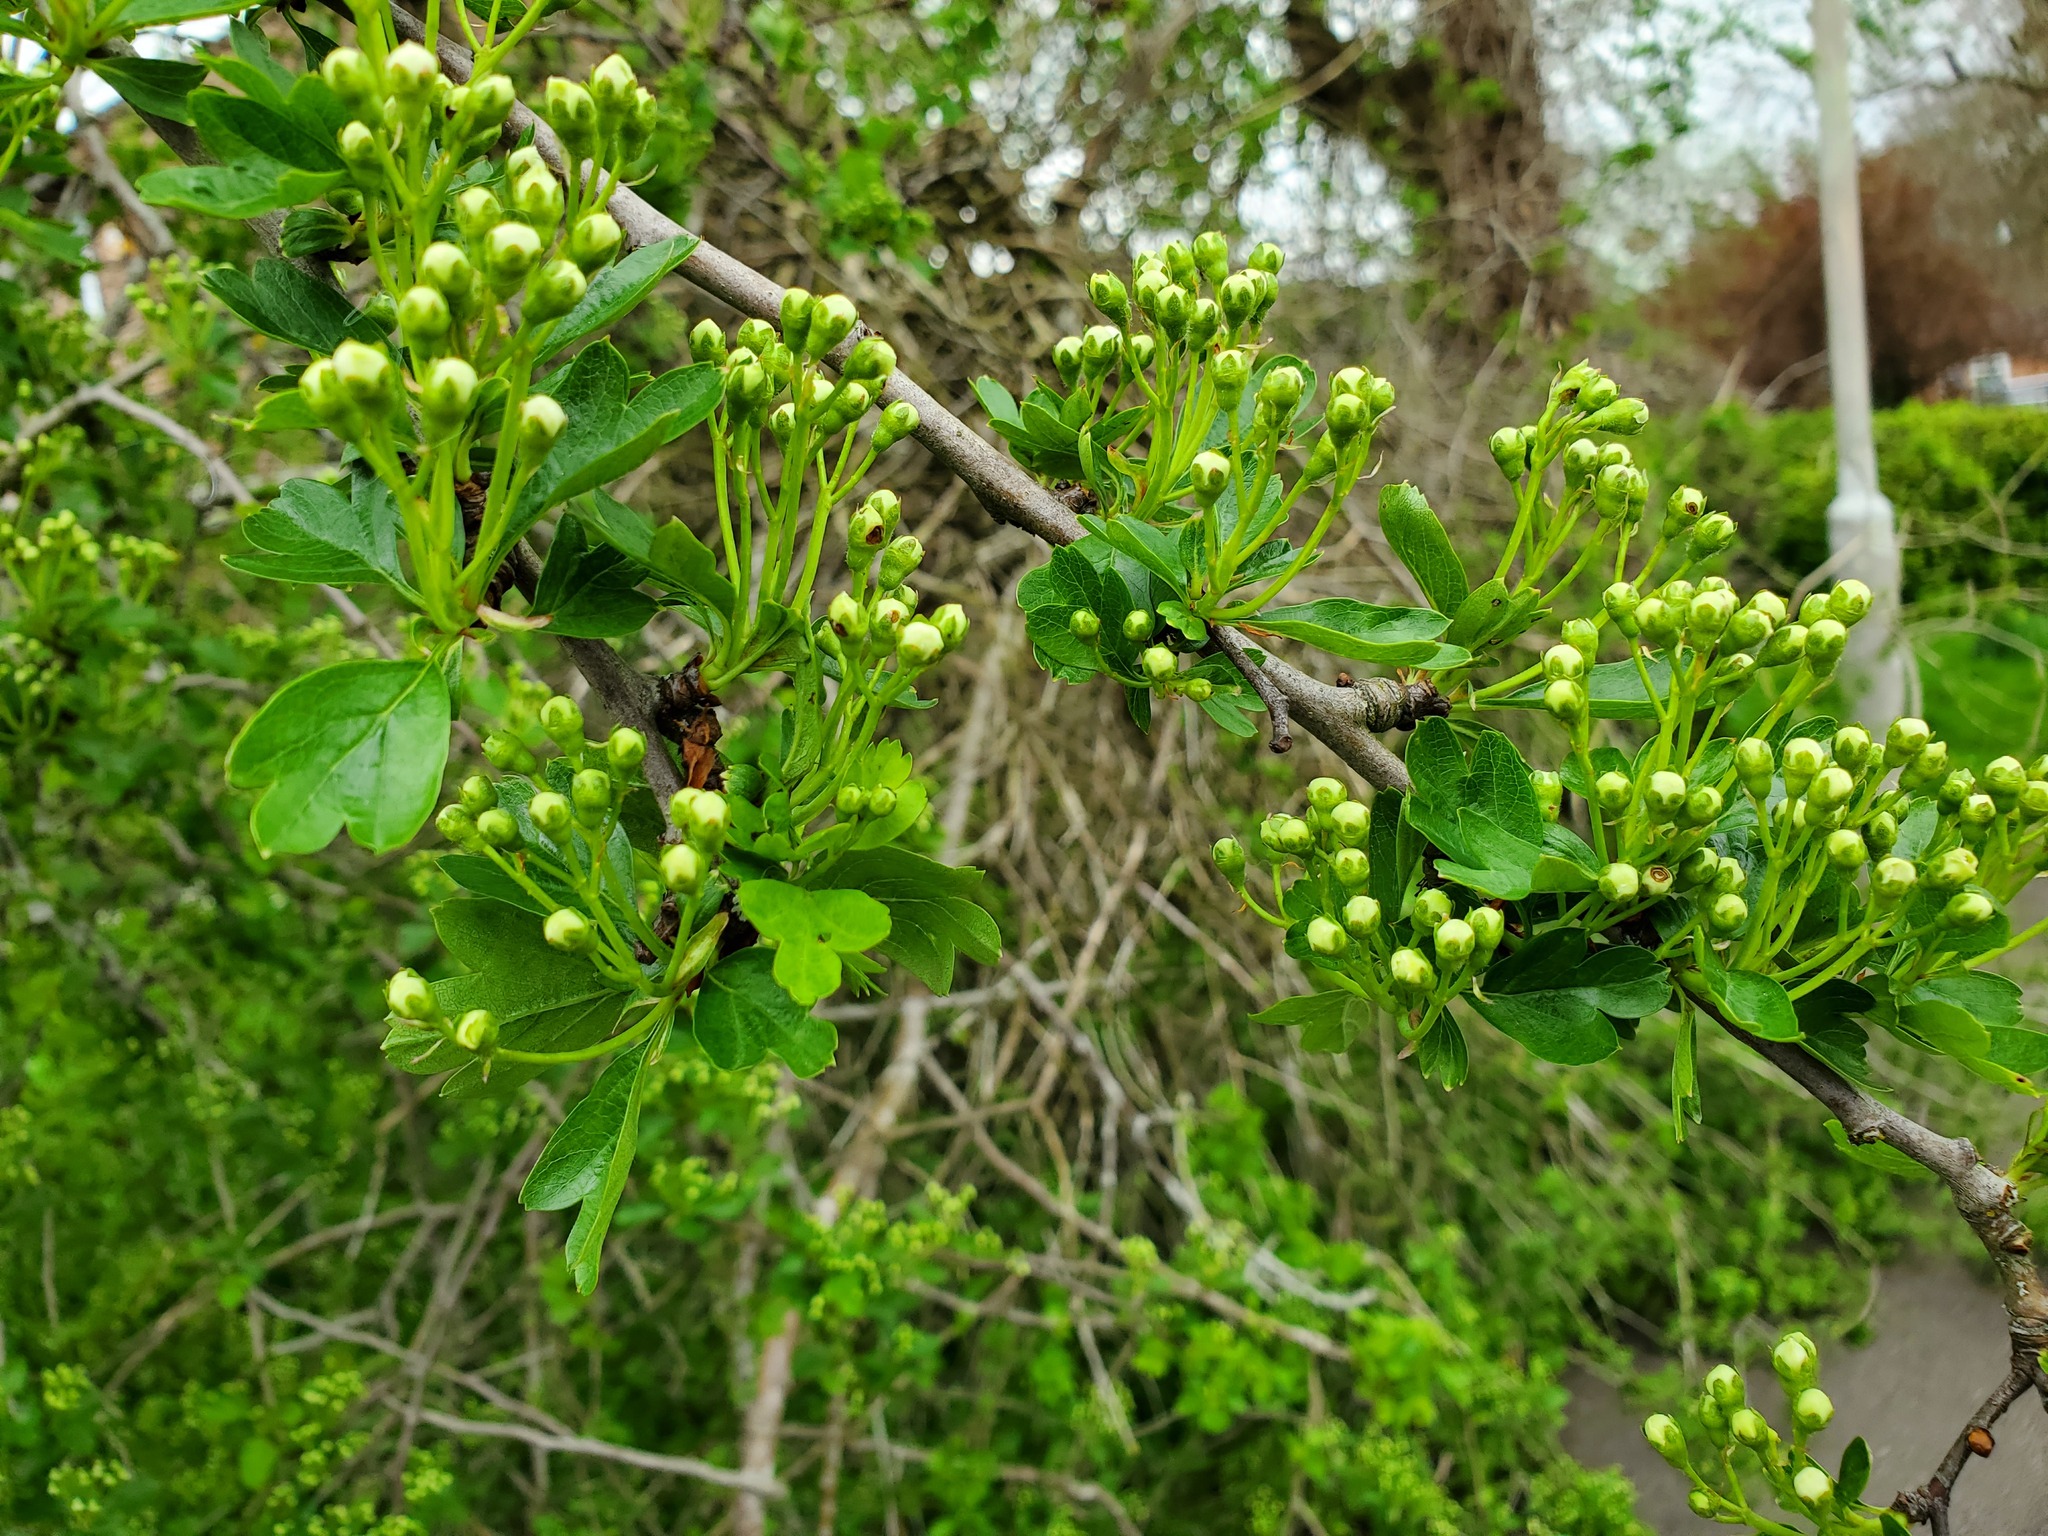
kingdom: Plantae
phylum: Tracheophyta
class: Magnoliopsida
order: Rosales
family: Rosaceae
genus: Crataegus
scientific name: Crataegus monogyna
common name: Hawthorn
